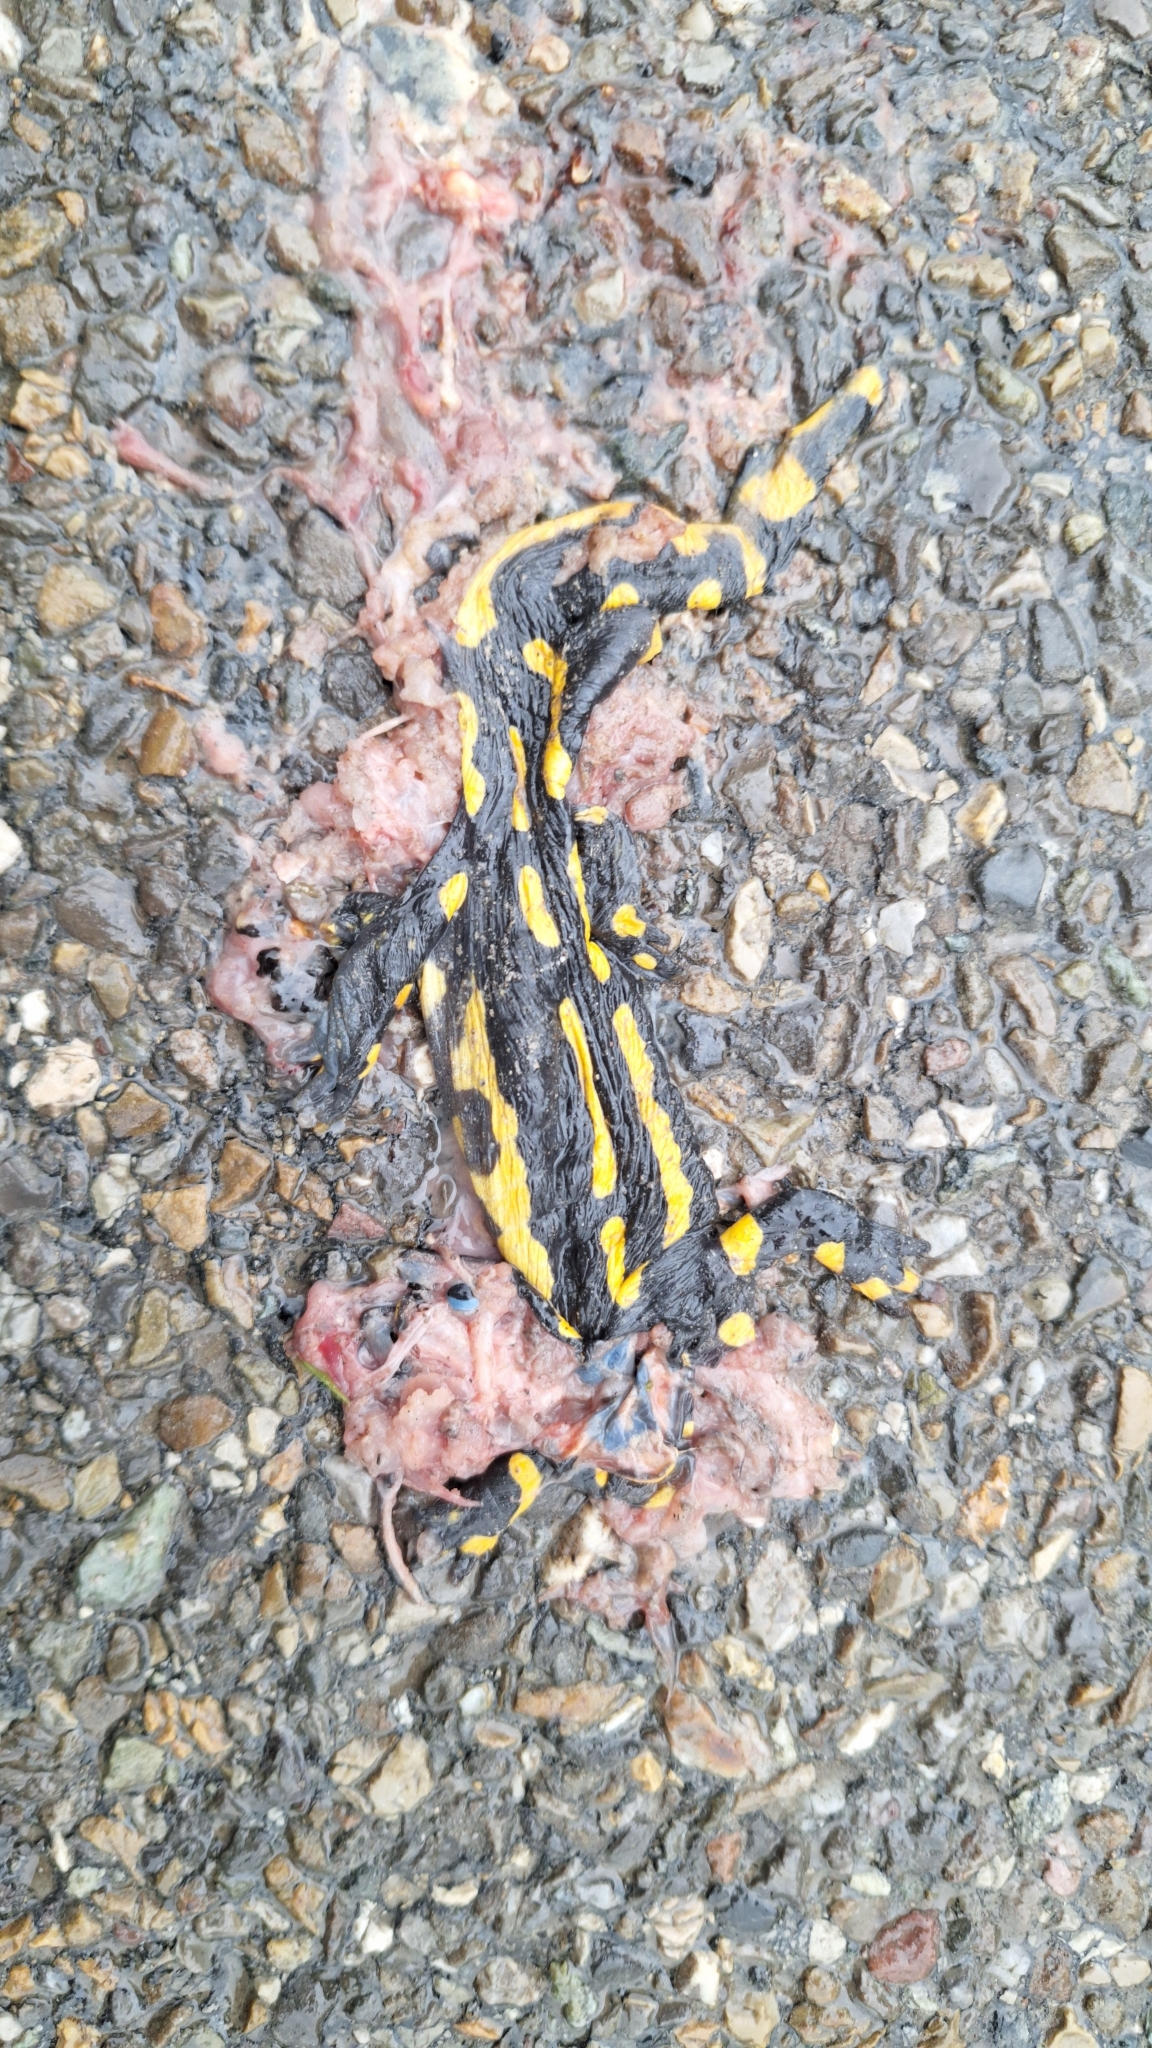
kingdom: Animalia
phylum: Chordata
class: Amphibia
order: Caudata
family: Salamandridae
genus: Salamandra
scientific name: Salamandra salamandra
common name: Fire salamander
